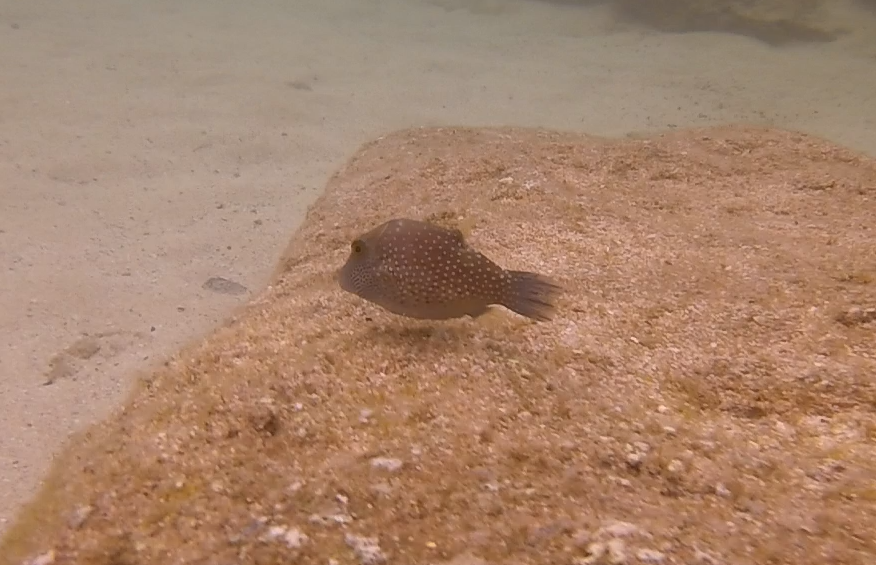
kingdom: Animalia
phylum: Chordata
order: Tetraodontiformes
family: Tetraodontidae
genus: Canthigaster
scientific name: Canthigaster amboinensis
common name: Ambon pufferfish
